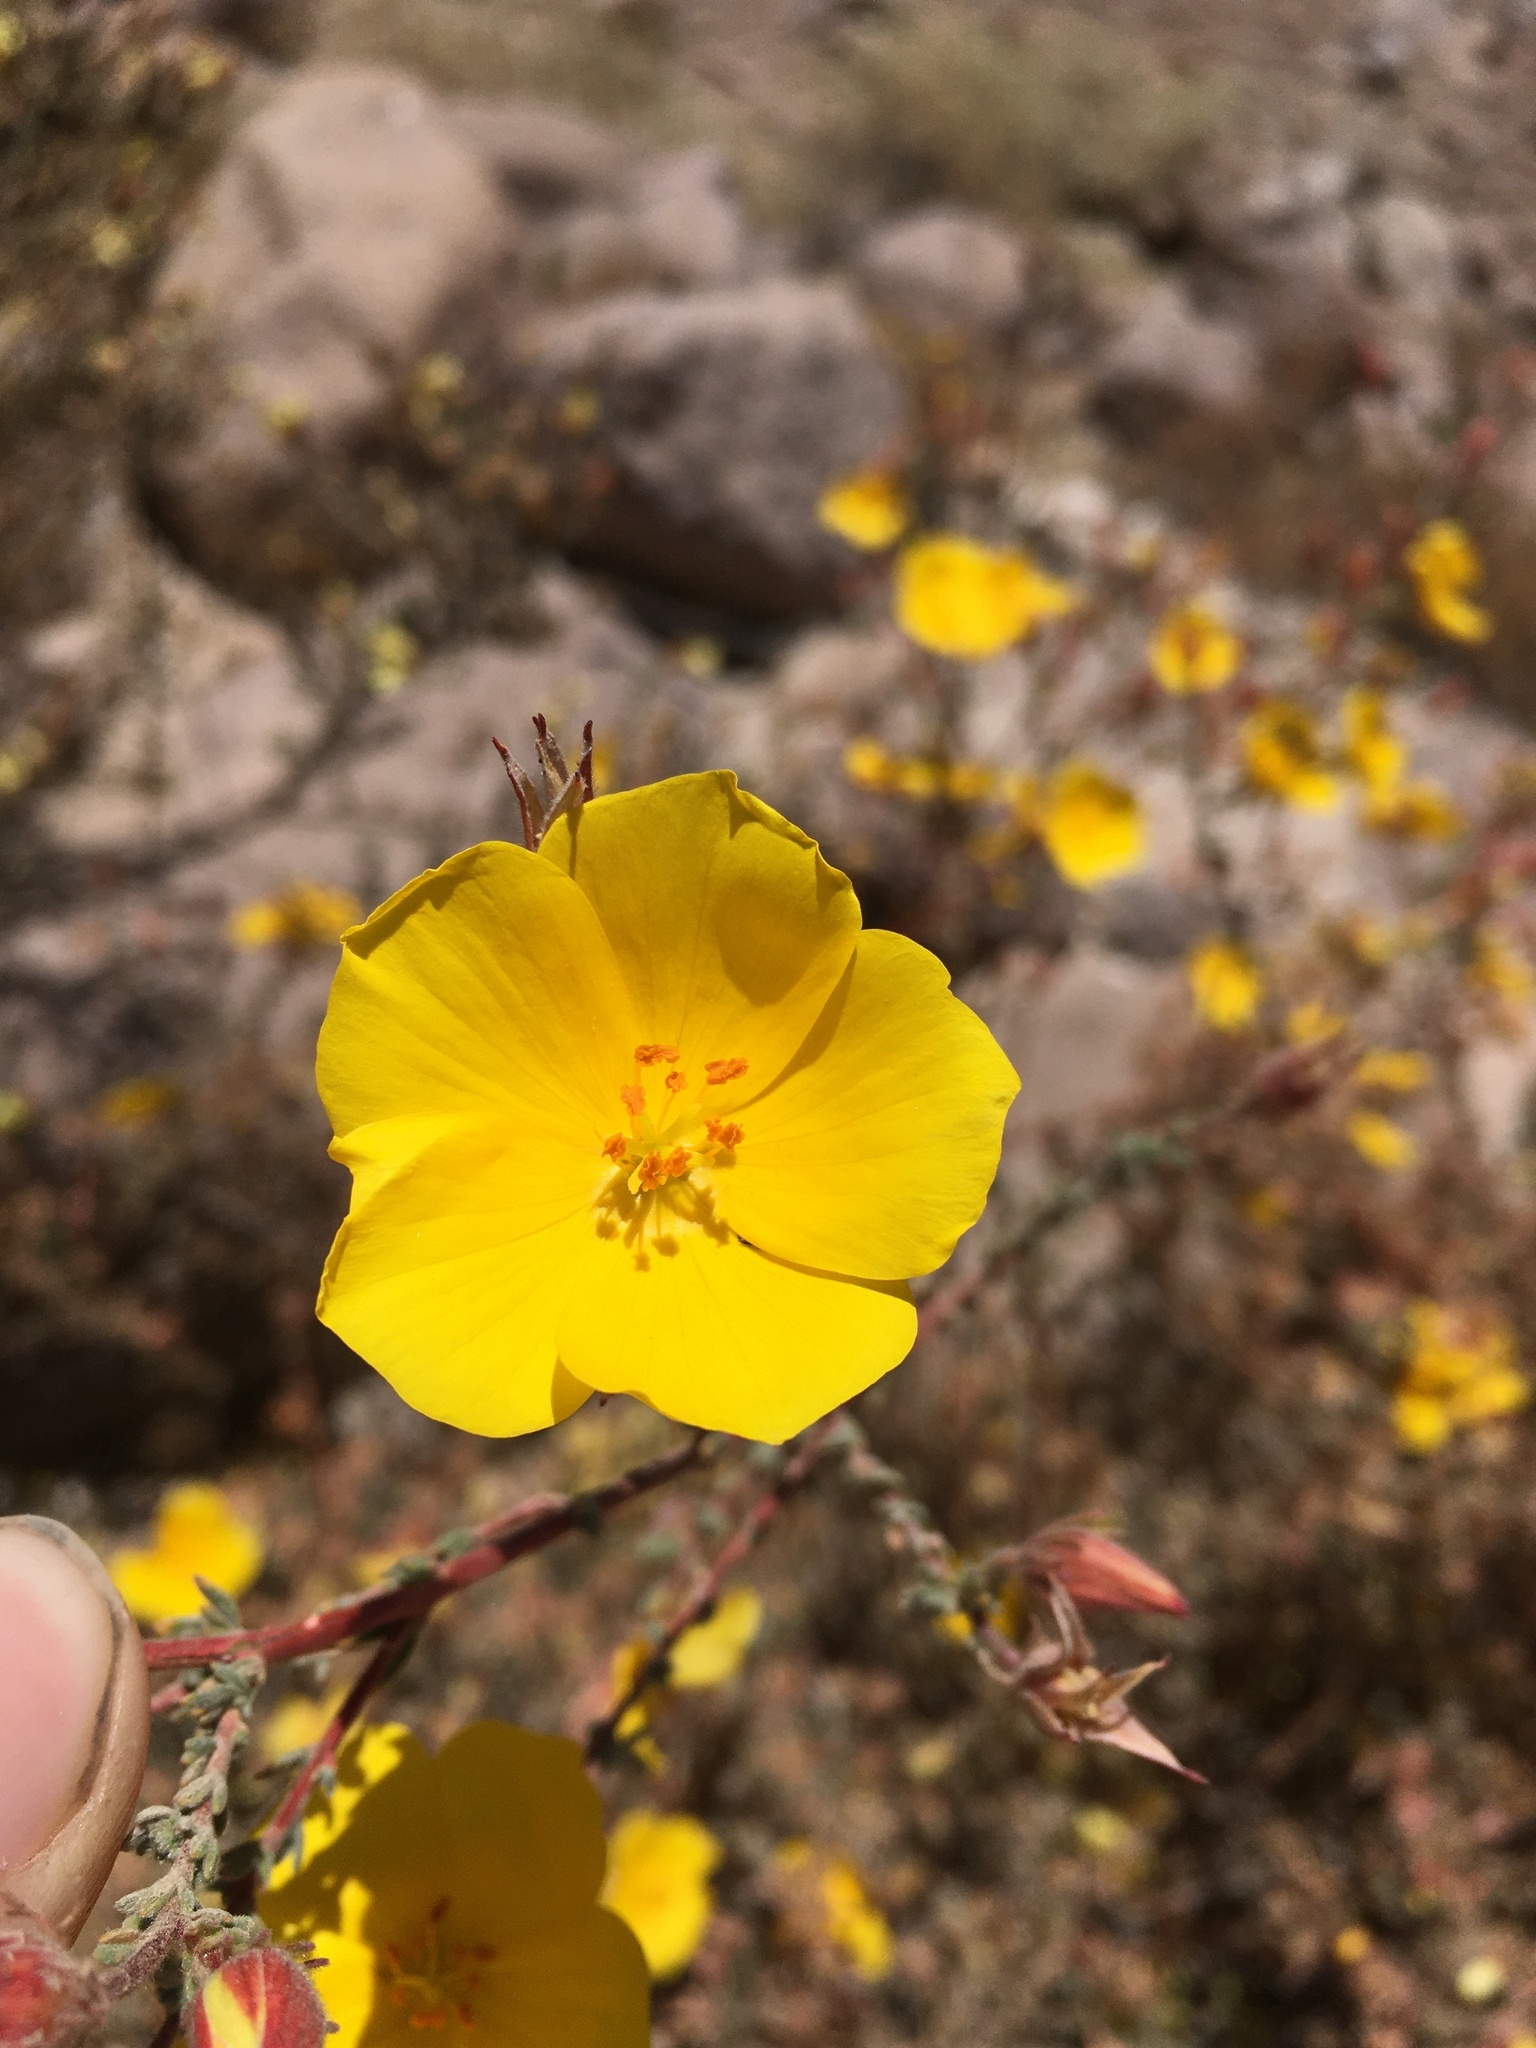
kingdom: Plantae
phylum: Tracheophyta
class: Magnoliopsida
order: Geraniales
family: Vivianiaceae
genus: Balbisia
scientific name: Balbisia microphylla
